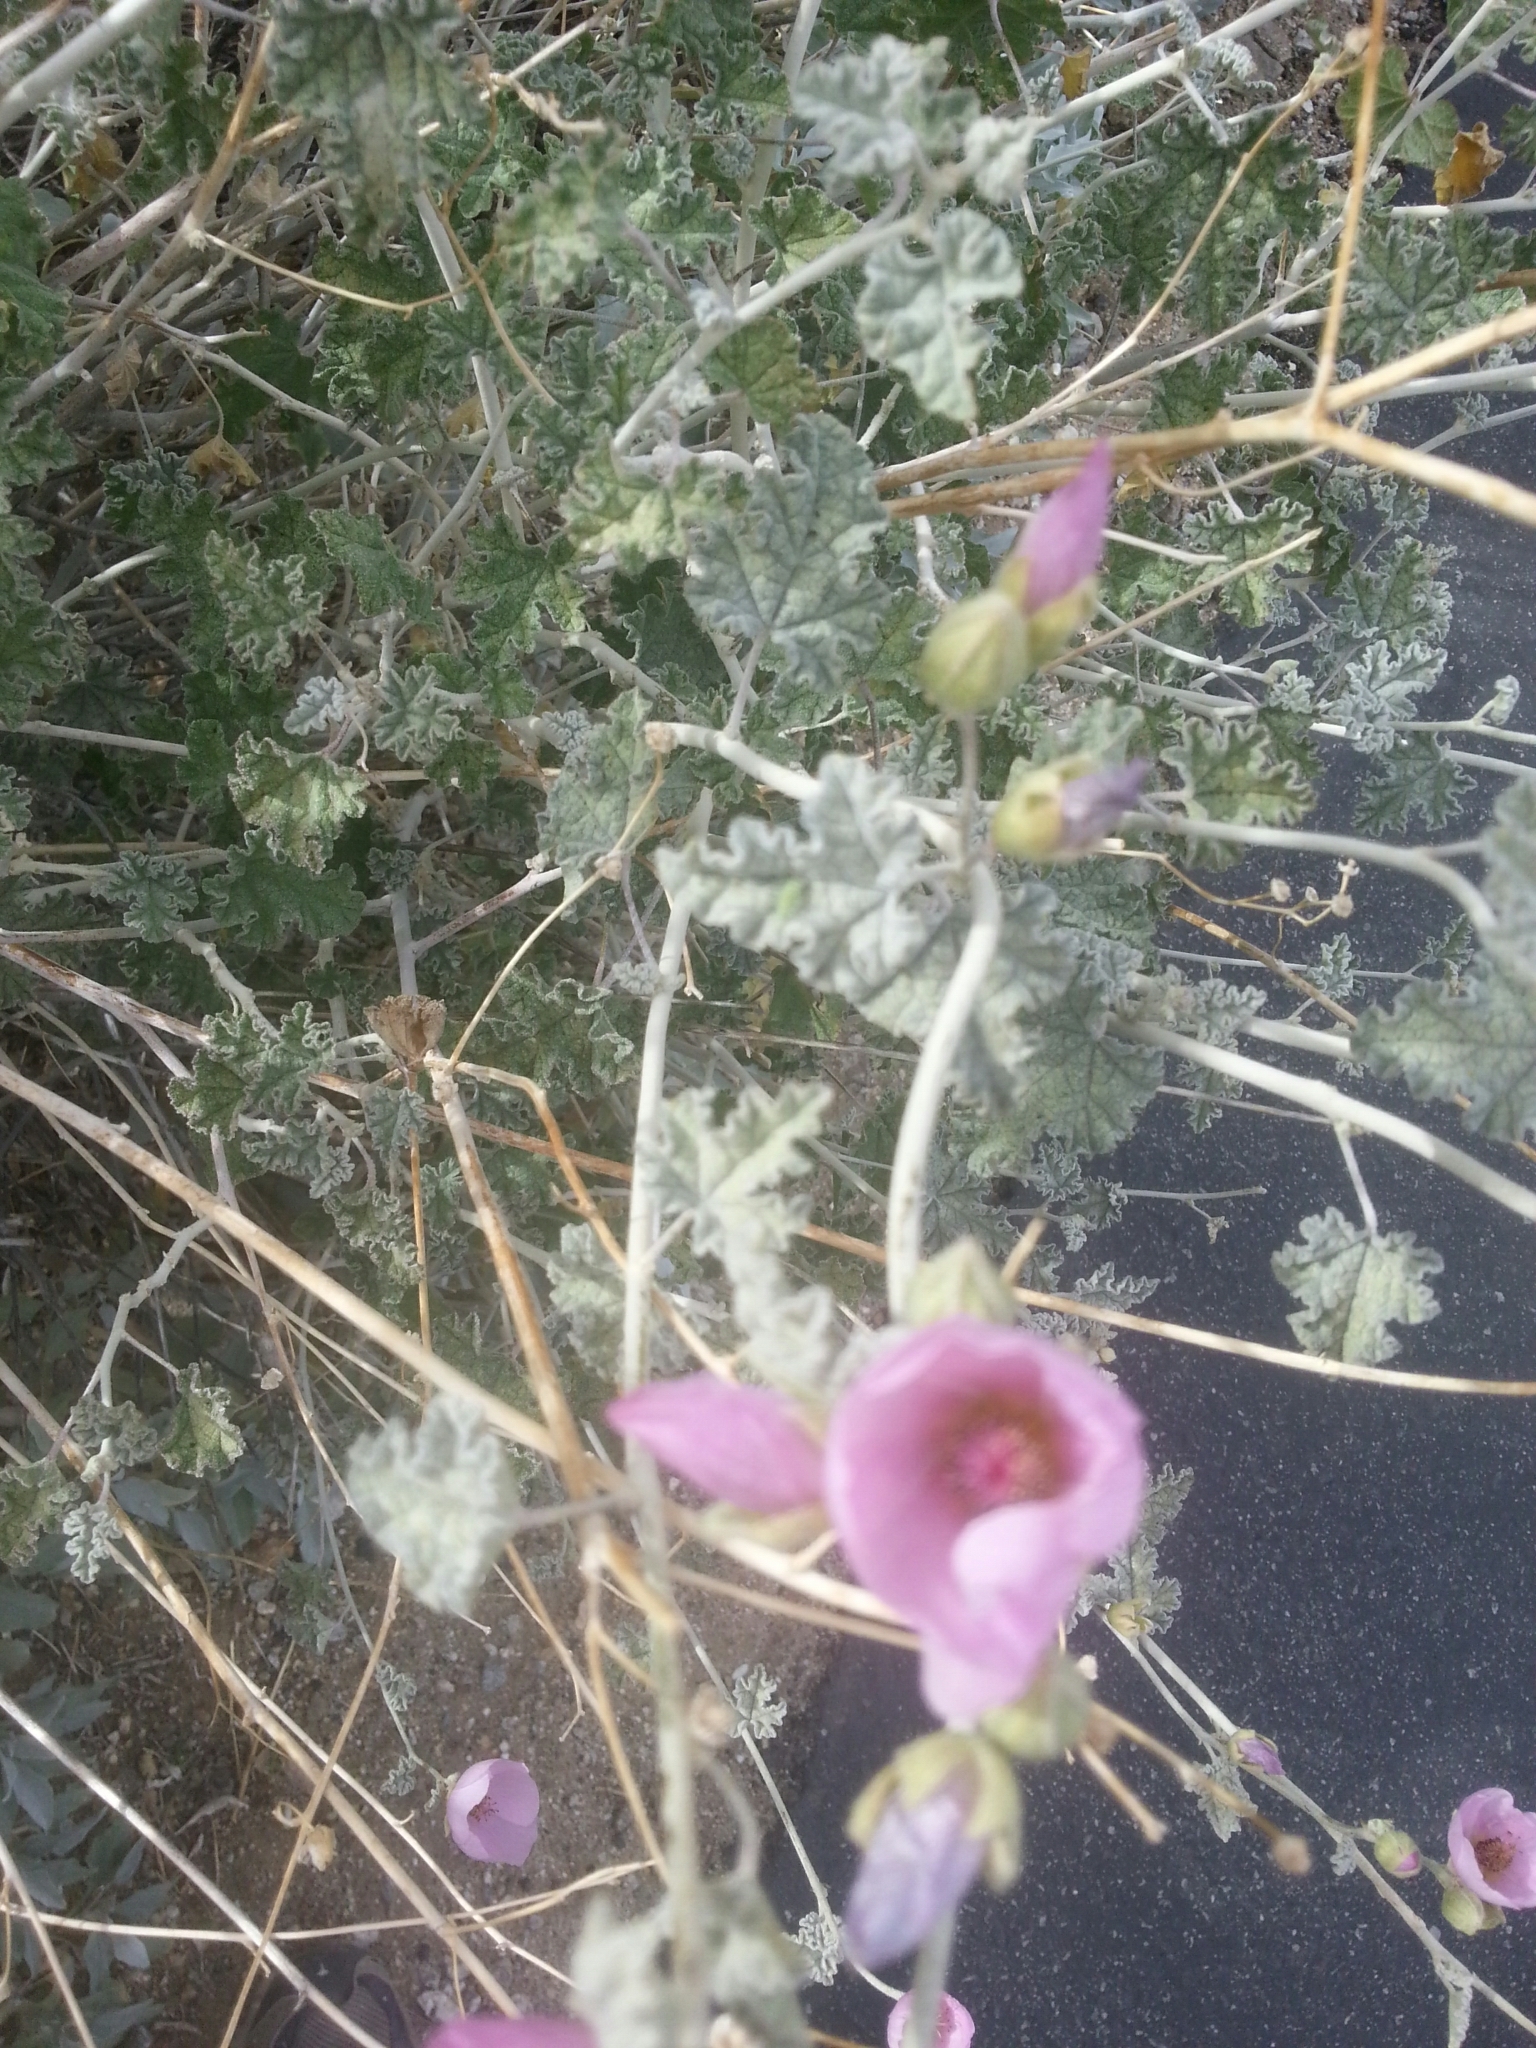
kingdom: Plantae
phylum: Tracheophyta
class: Magnoliopsida
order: Malvales
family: Malvaceae
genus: Sphaeralcea
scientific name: Sphaeralcea ambigua
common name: Apricot globe-mallow
